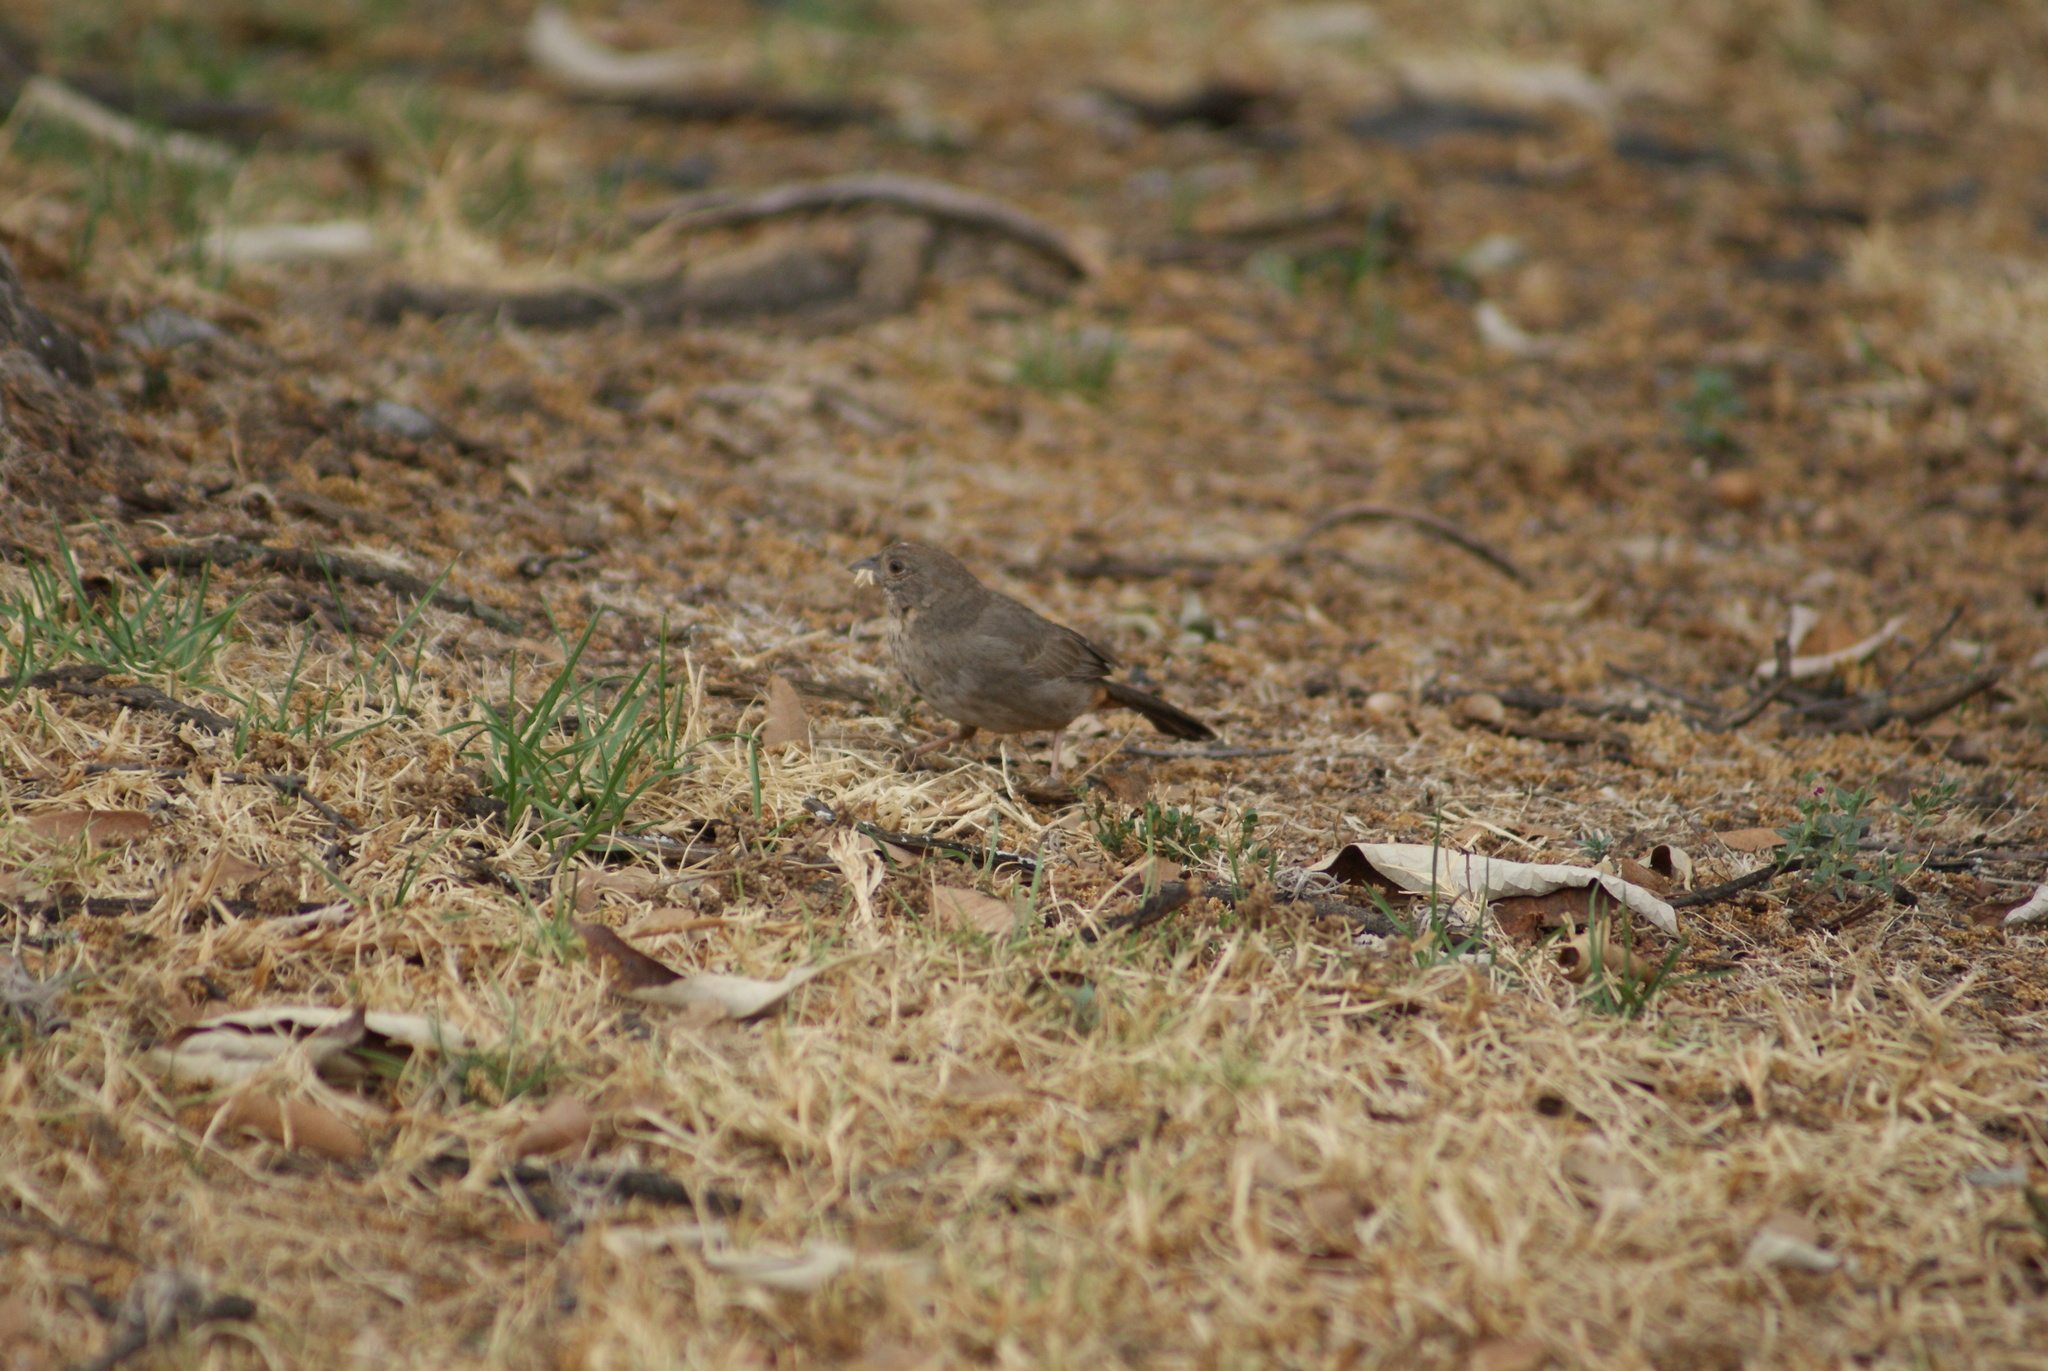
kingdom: Animalia
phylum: Chordata
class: Aves
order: Passeriformes
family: Passerellidae
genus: Melozone
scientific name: Melozone fusca
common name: Canyon towhee
